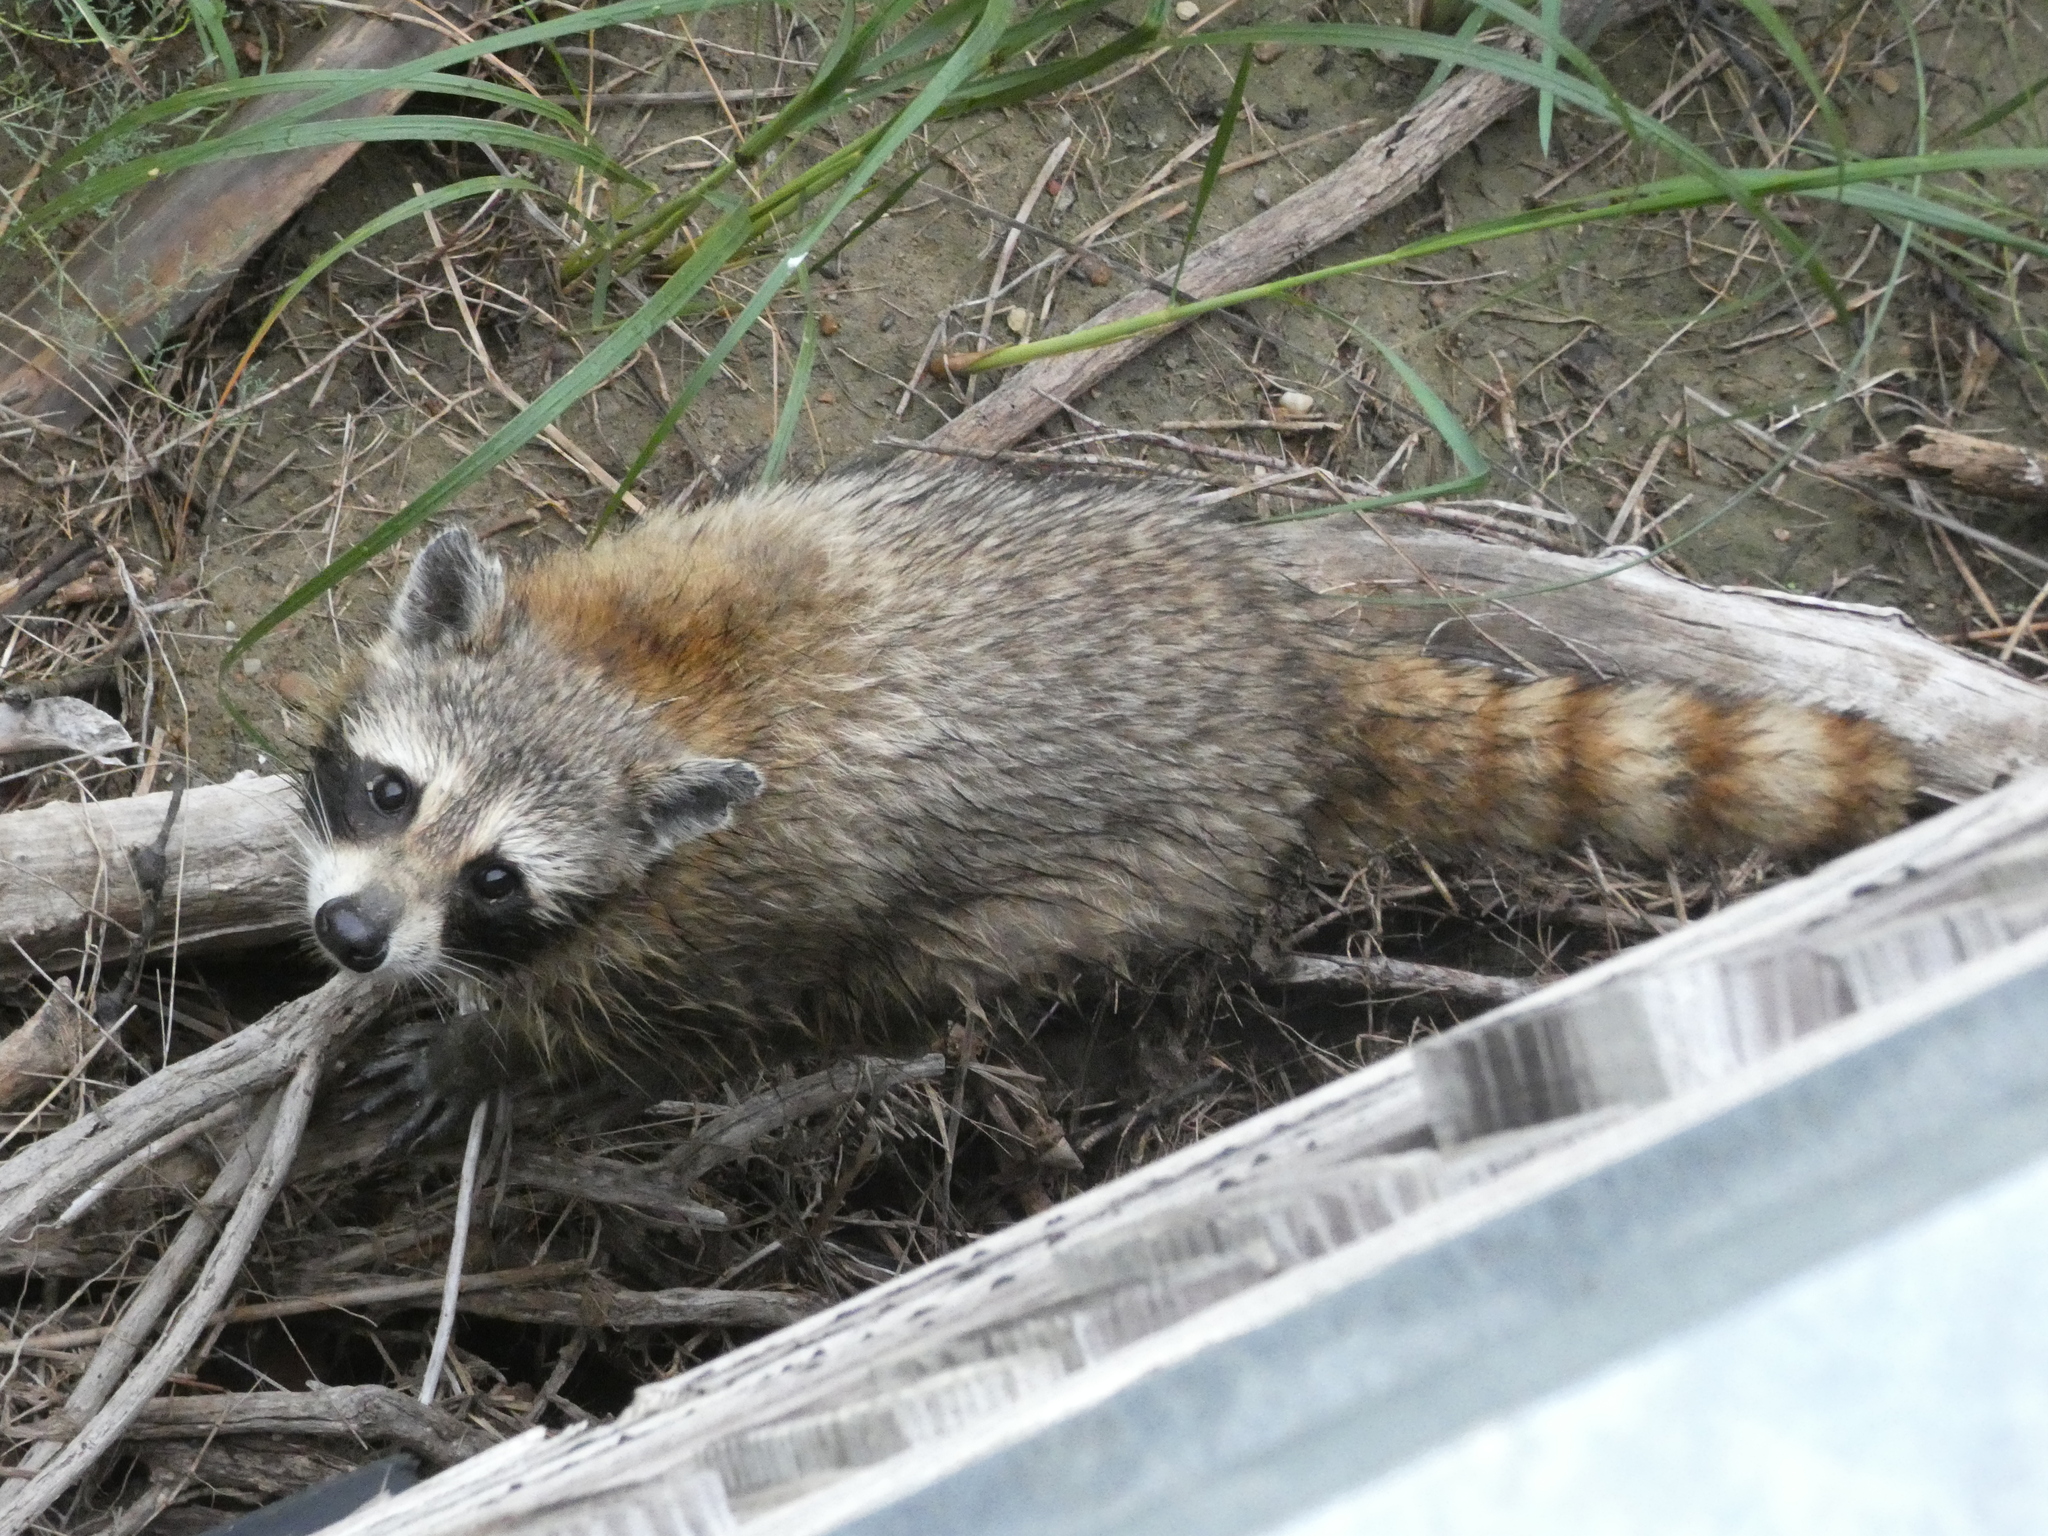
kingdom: Animalia
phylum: Chordata
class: Mammalia
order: Carnivora
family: Procyonidae
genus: Procyon
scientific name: Procyon lotor
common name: Raccoon
